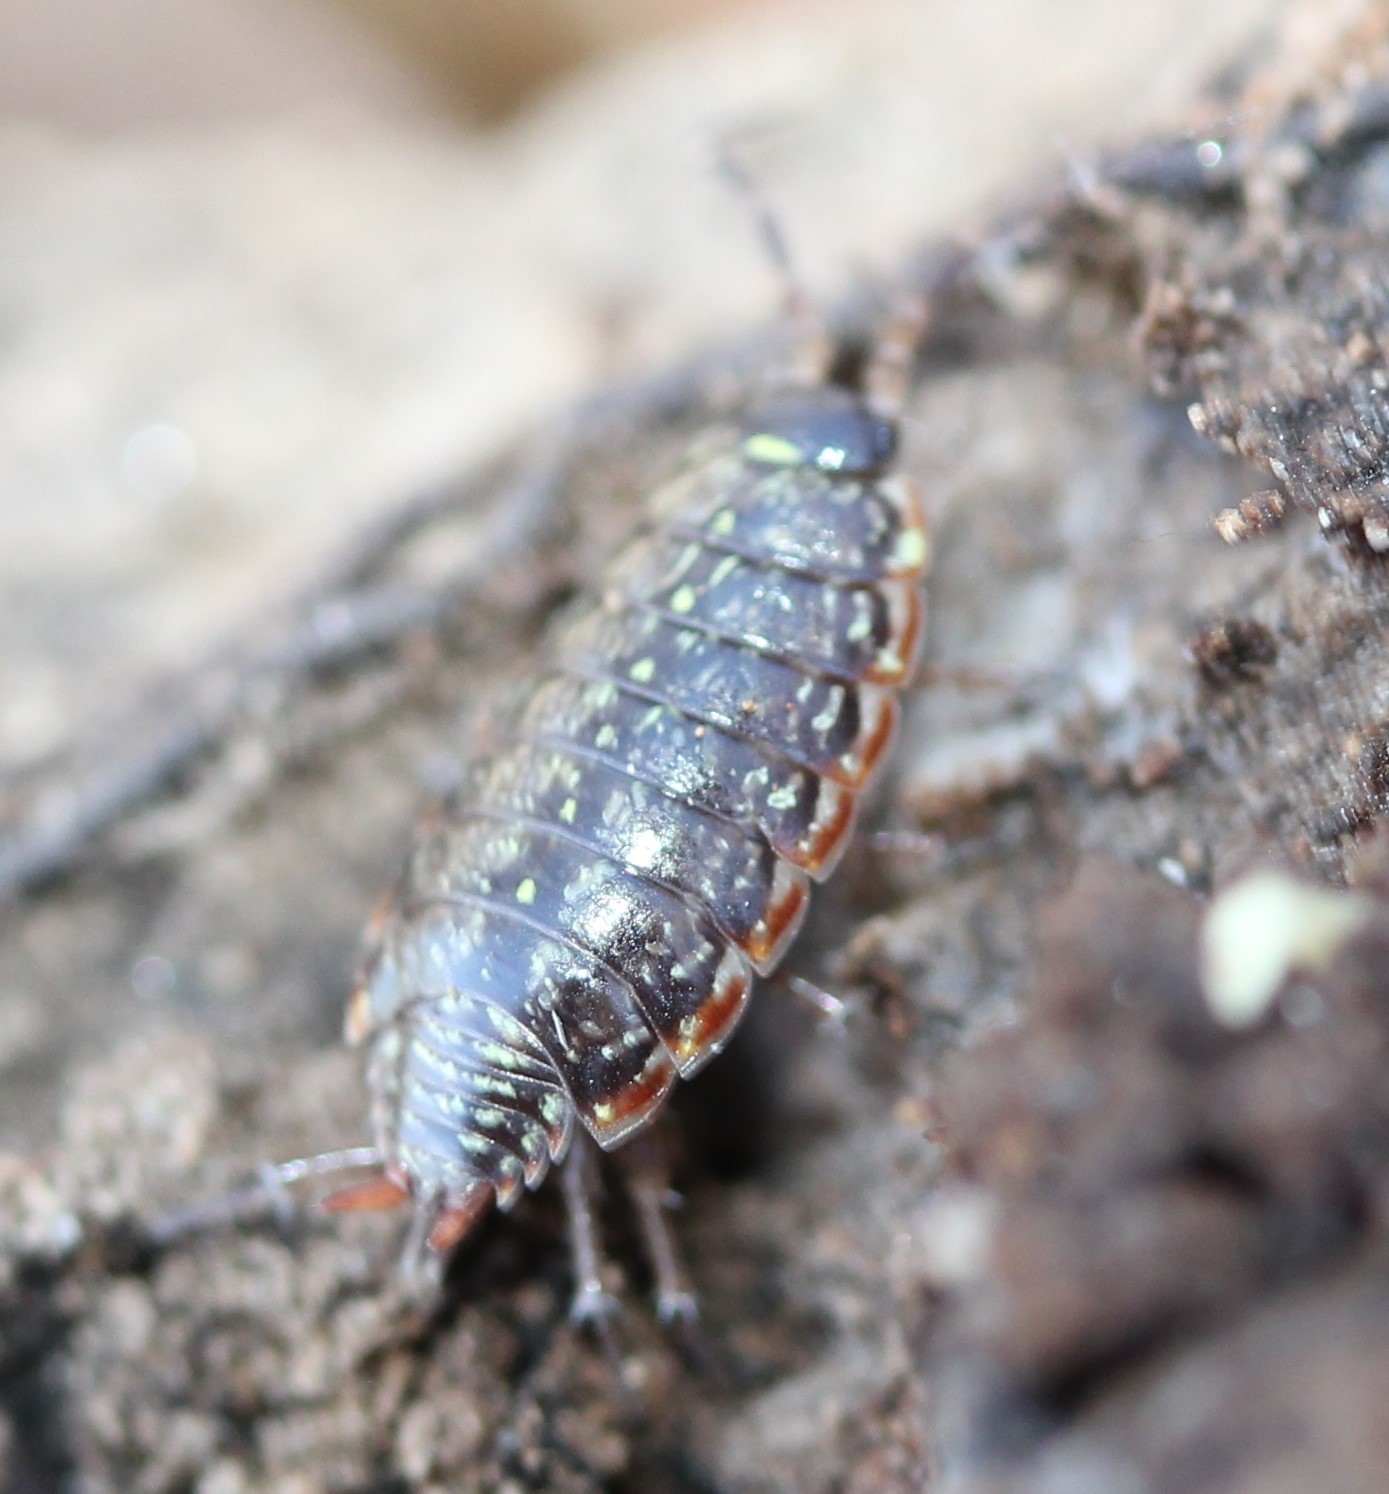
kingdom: Animalia
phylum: Arthropoda
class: Malacostraca
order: Isopoda
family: Philosciidae
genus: Philoscia
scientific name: Philoscia muscorum
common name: Common striped woodlouse
